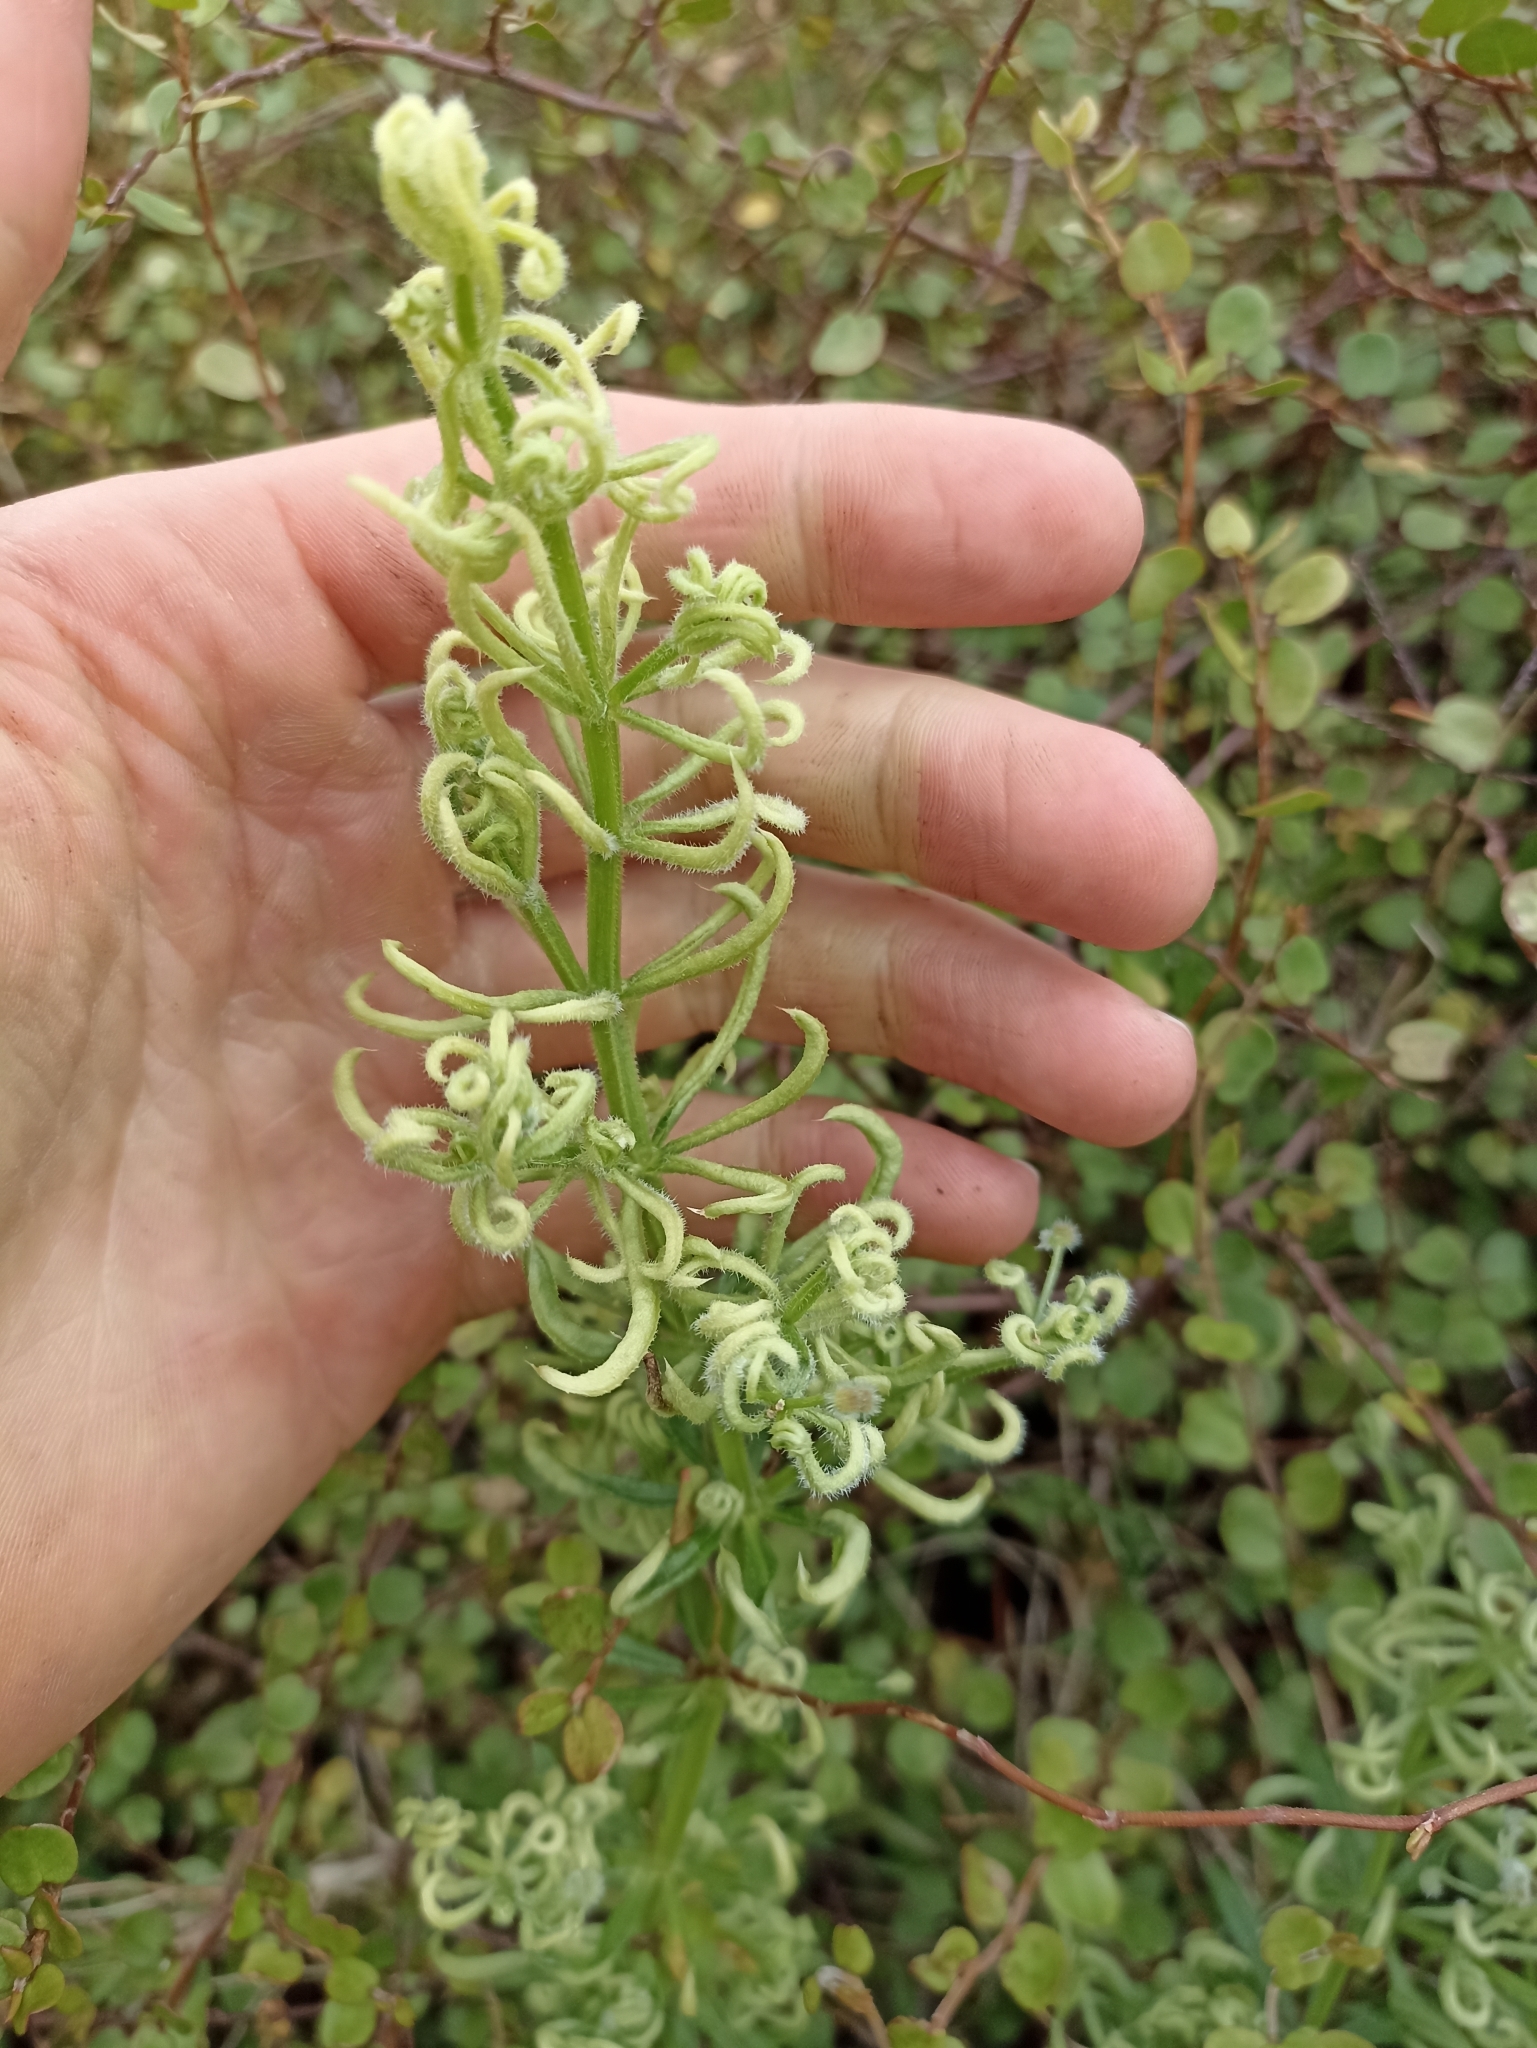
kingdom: Plantae
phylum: Tracheophyta
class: Magnoliopsida
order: Gentianales
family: Rubiaceae
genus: Galium
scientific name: Galium aparine
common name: Cleavers
